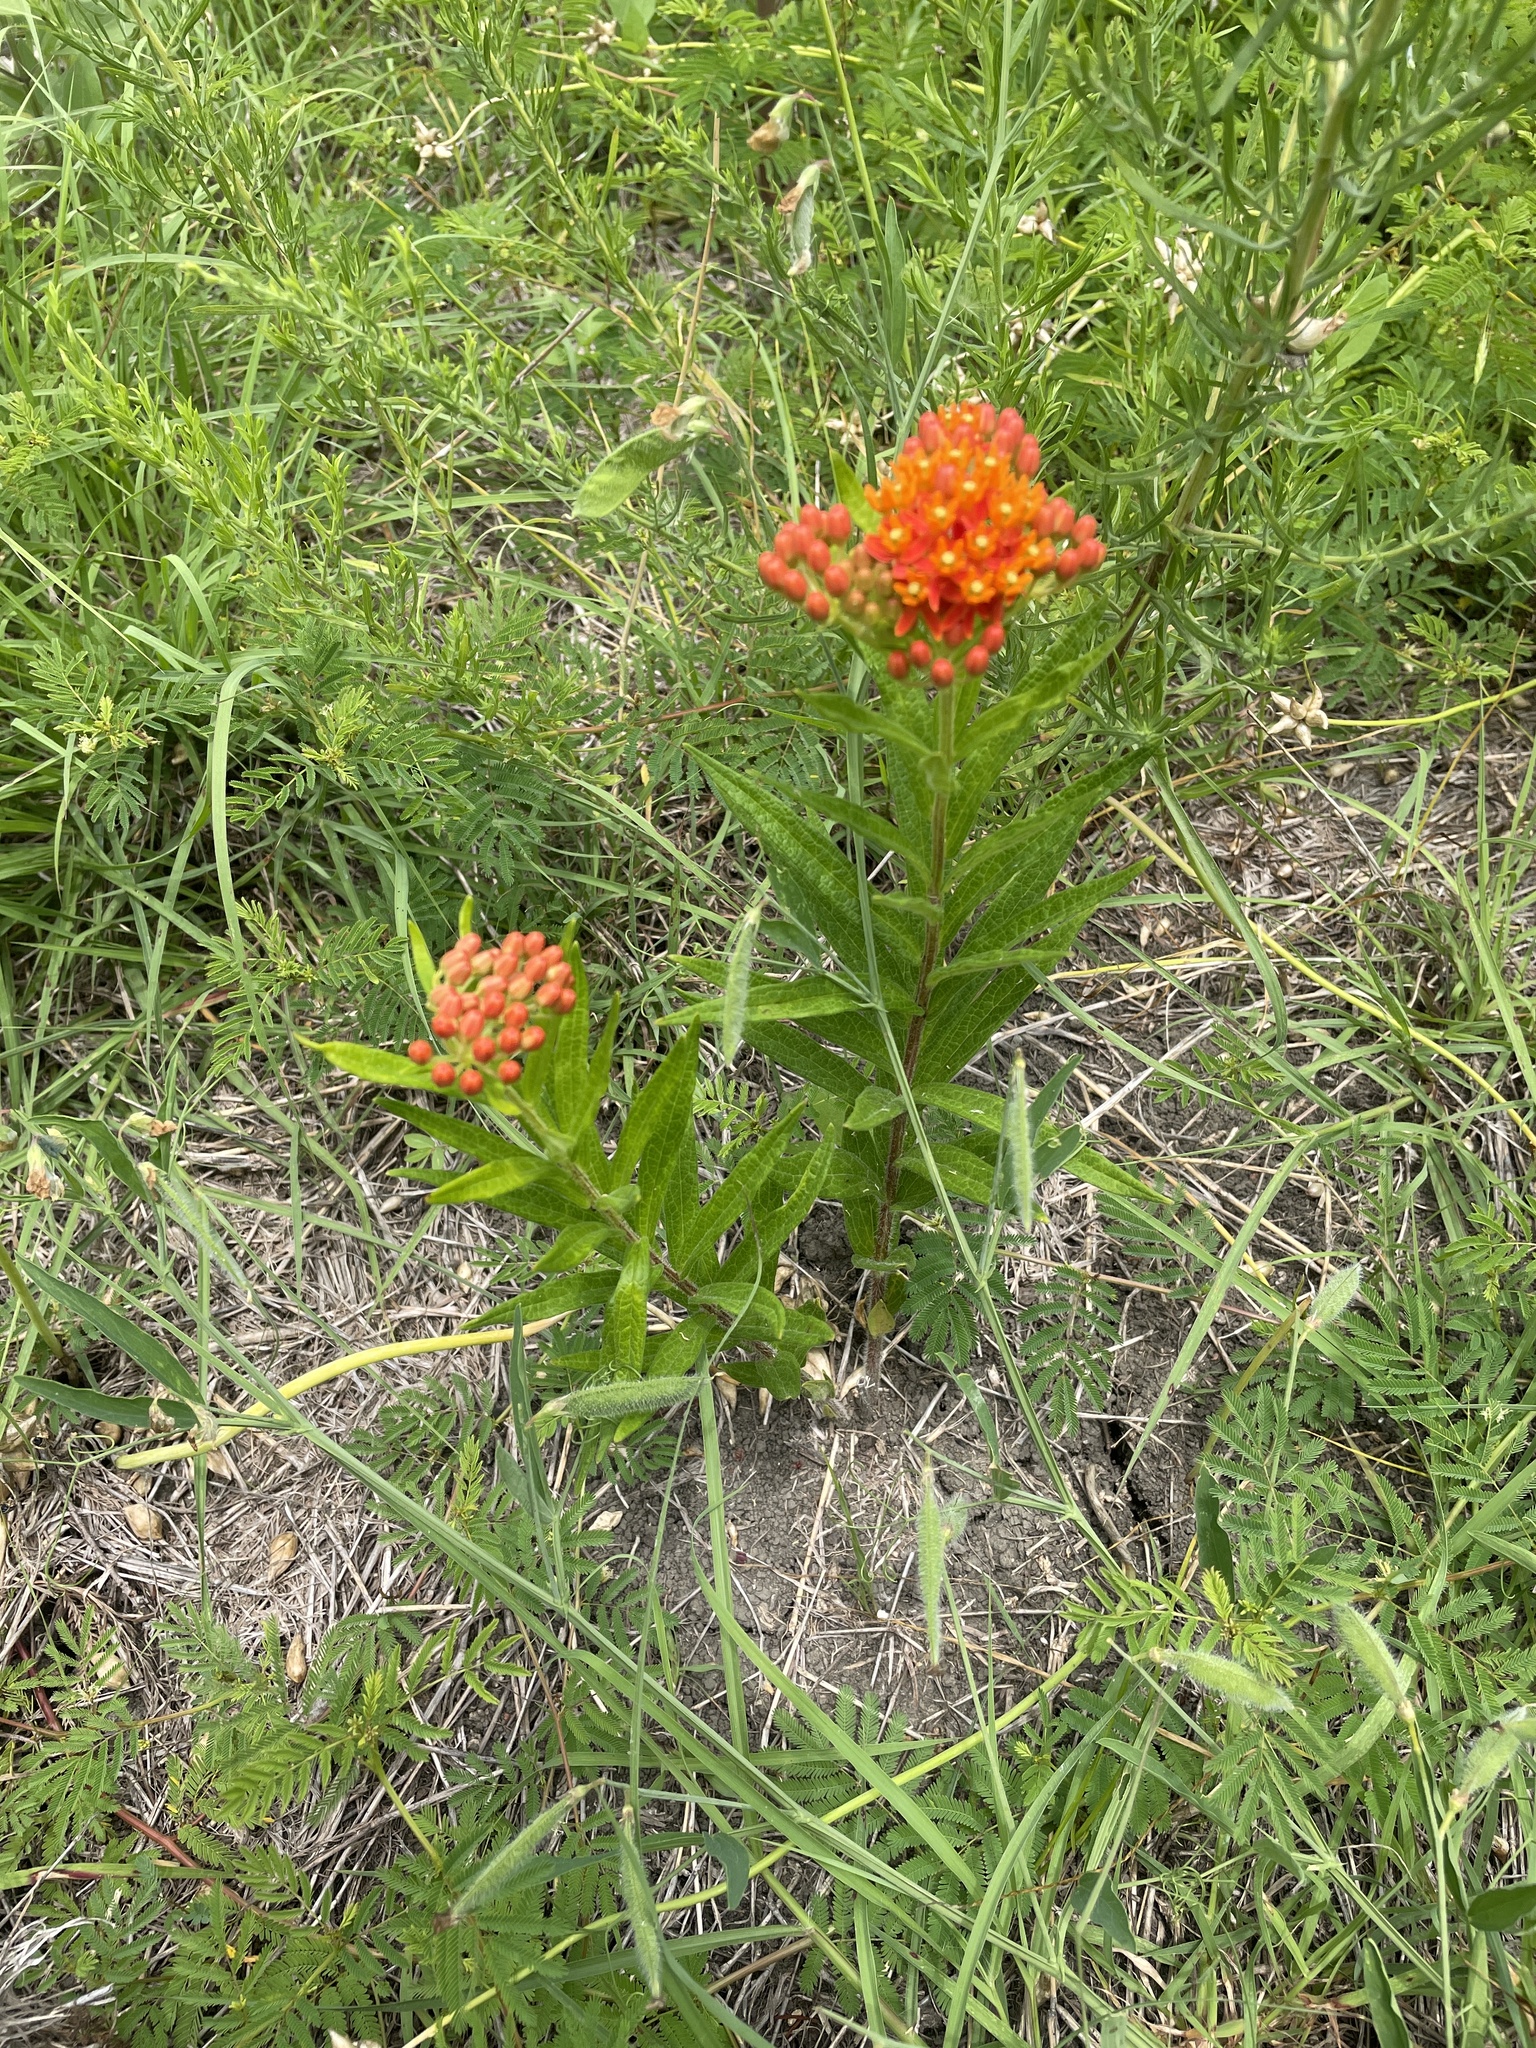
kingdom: Plantae
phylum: Tracheophyta
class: Magnoliopsida
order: Gentianales
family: Apocynaceae
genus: Asclepias
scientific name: Asclepias tuberosa
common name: Butterfly milkweed
